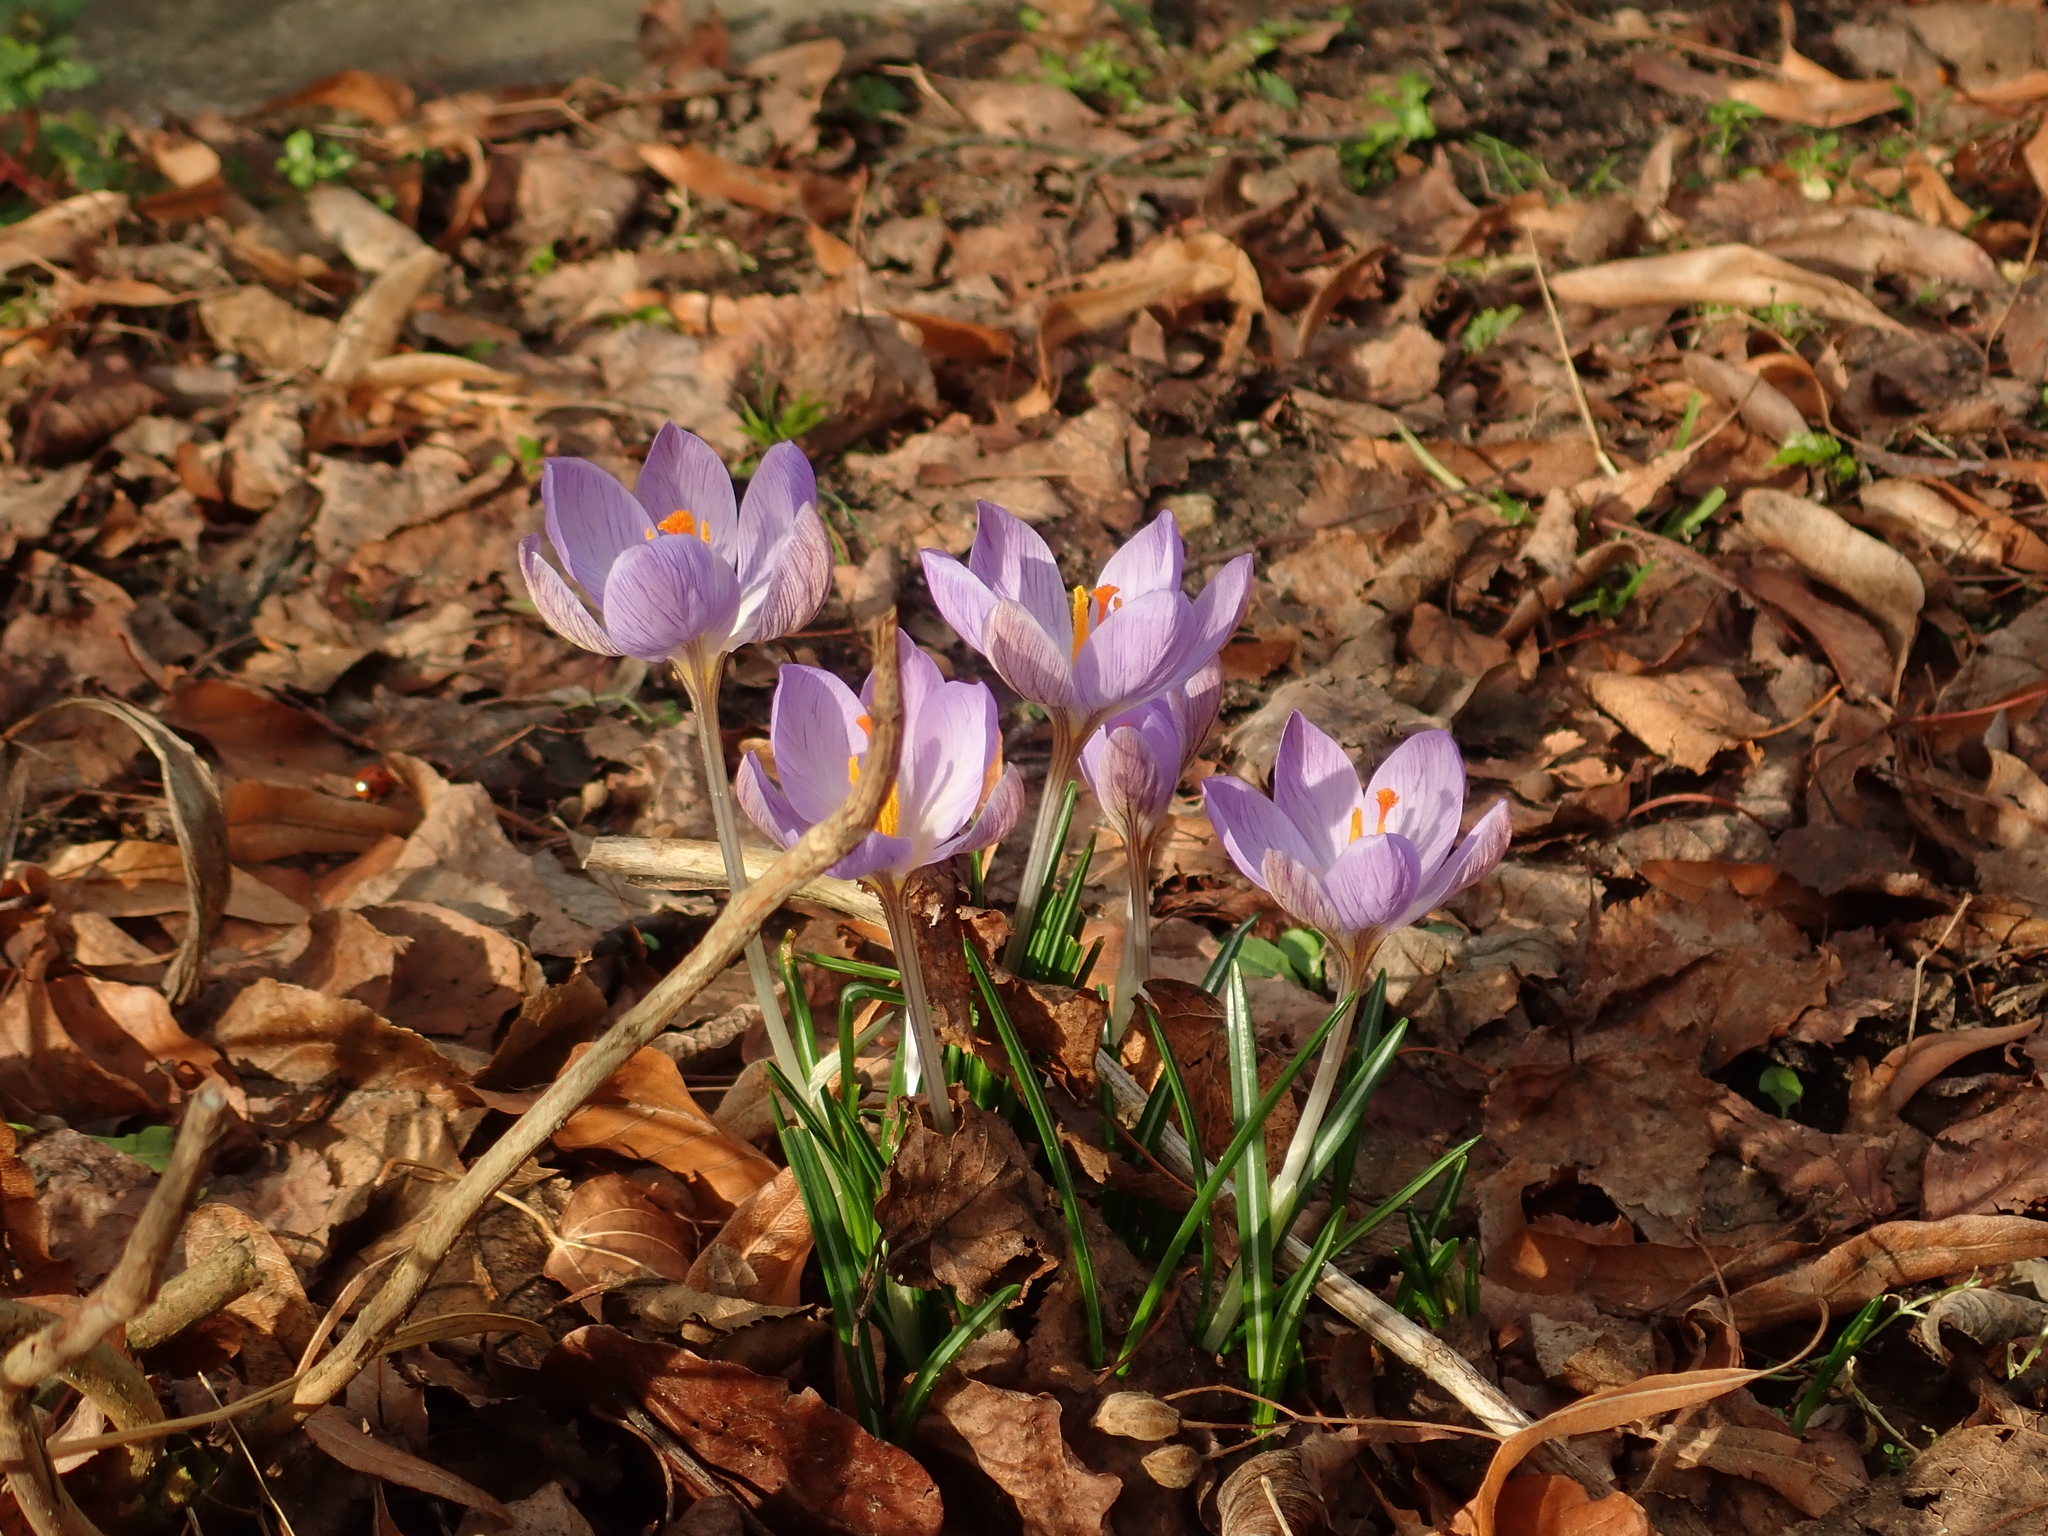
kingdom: Plantae
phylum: Tracheophyta
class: Liliopsida
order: Asparagales
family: Iridaceae
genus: Crocus
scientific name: Crocus tommasinianus
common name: Early crocus
